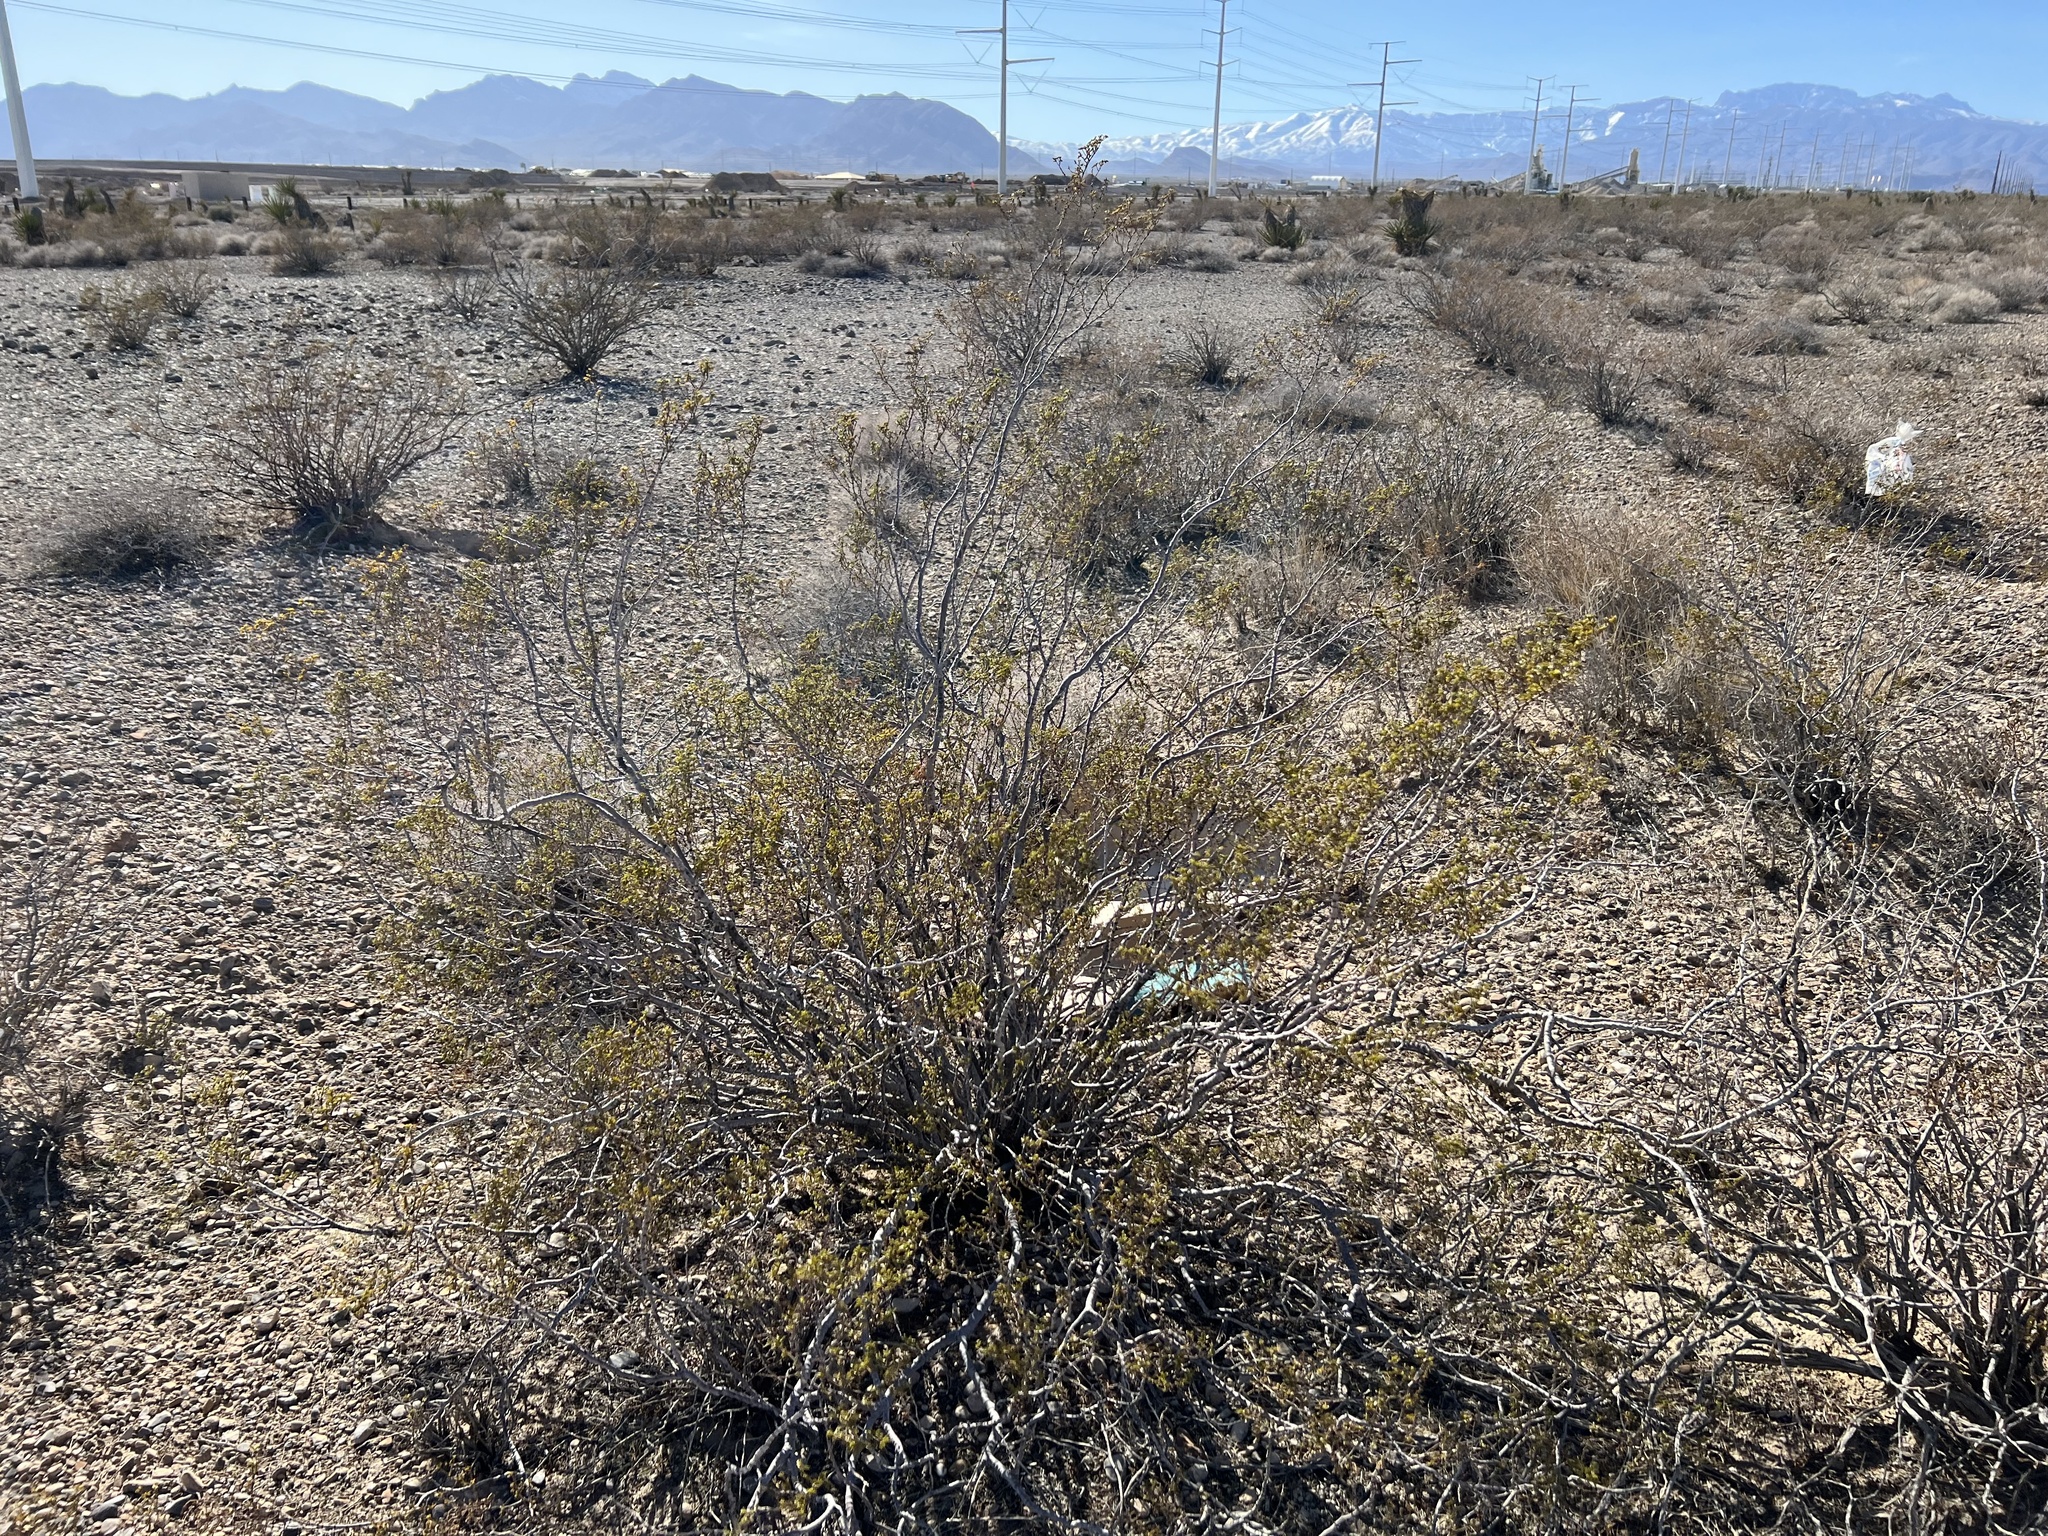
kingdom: Plantae
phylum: Tracheophyta
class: Magnoliopsida
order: Zygophyllales
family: Zygophyllaceae
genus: Larrea
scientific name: Larrea tridentata
